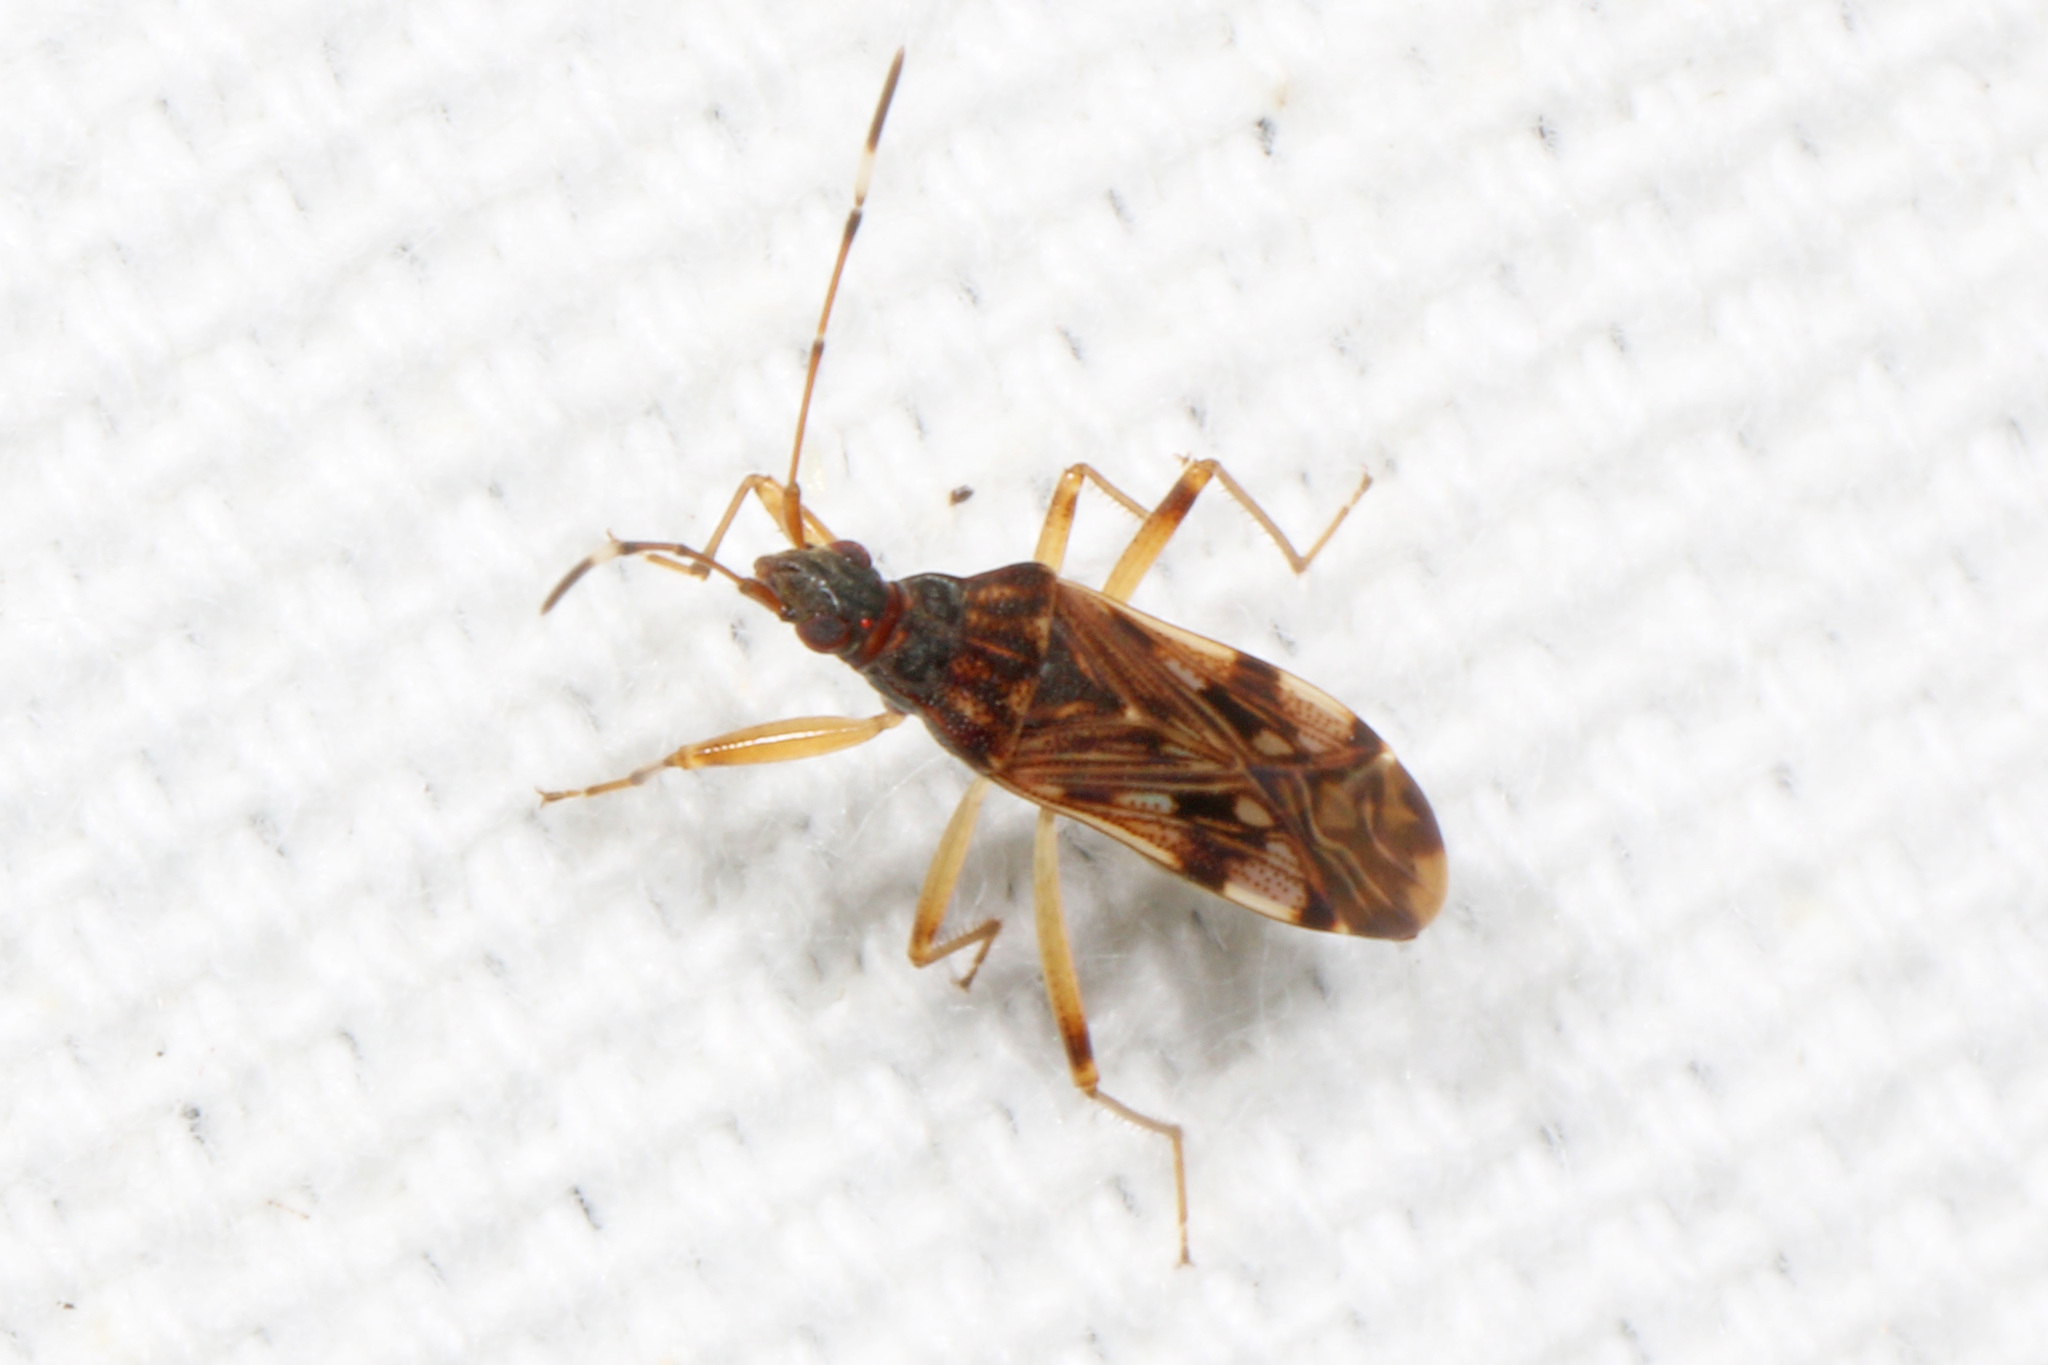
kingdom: Animalia
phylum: Arthropoda
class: Insecta
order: Hemiptera
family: Rhyparochromidae
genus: Ozophora
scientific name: Ozophora picturata
